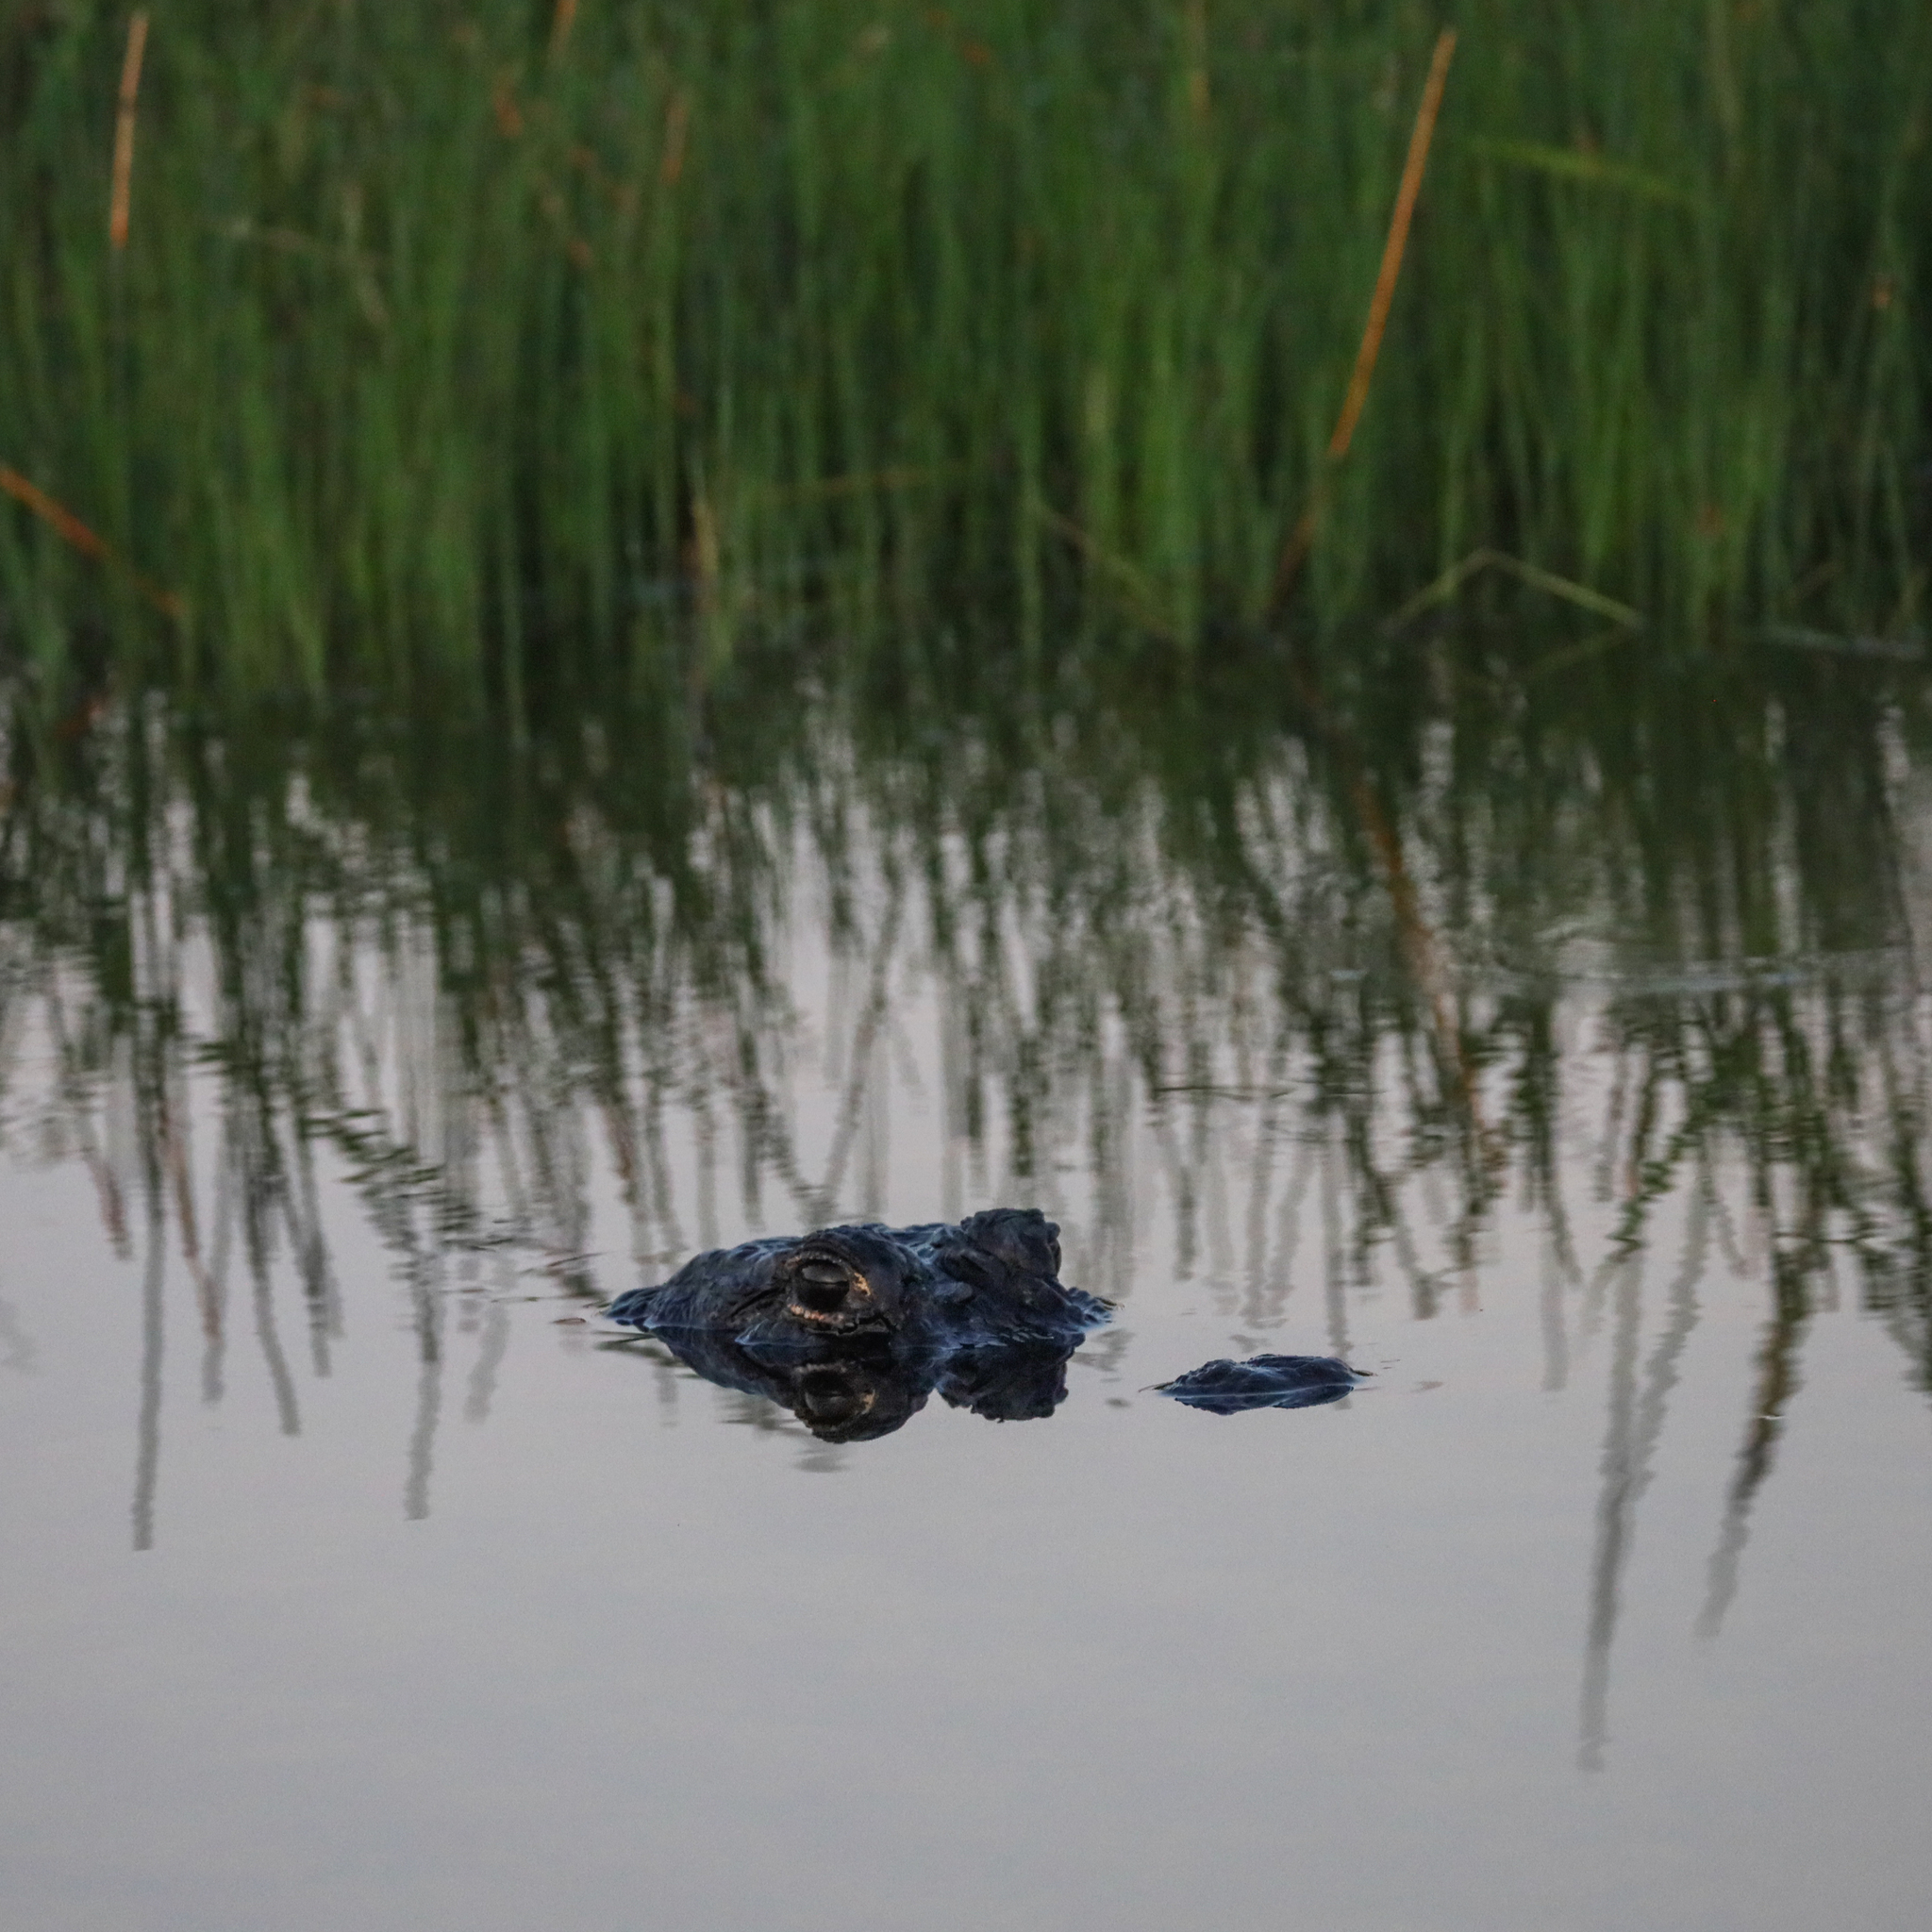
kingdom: Animalia
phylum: Chordata
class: Crocodylia
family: Alligatoridae
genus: Alligator
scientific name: Alligator mississippiensis
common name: American alligator
